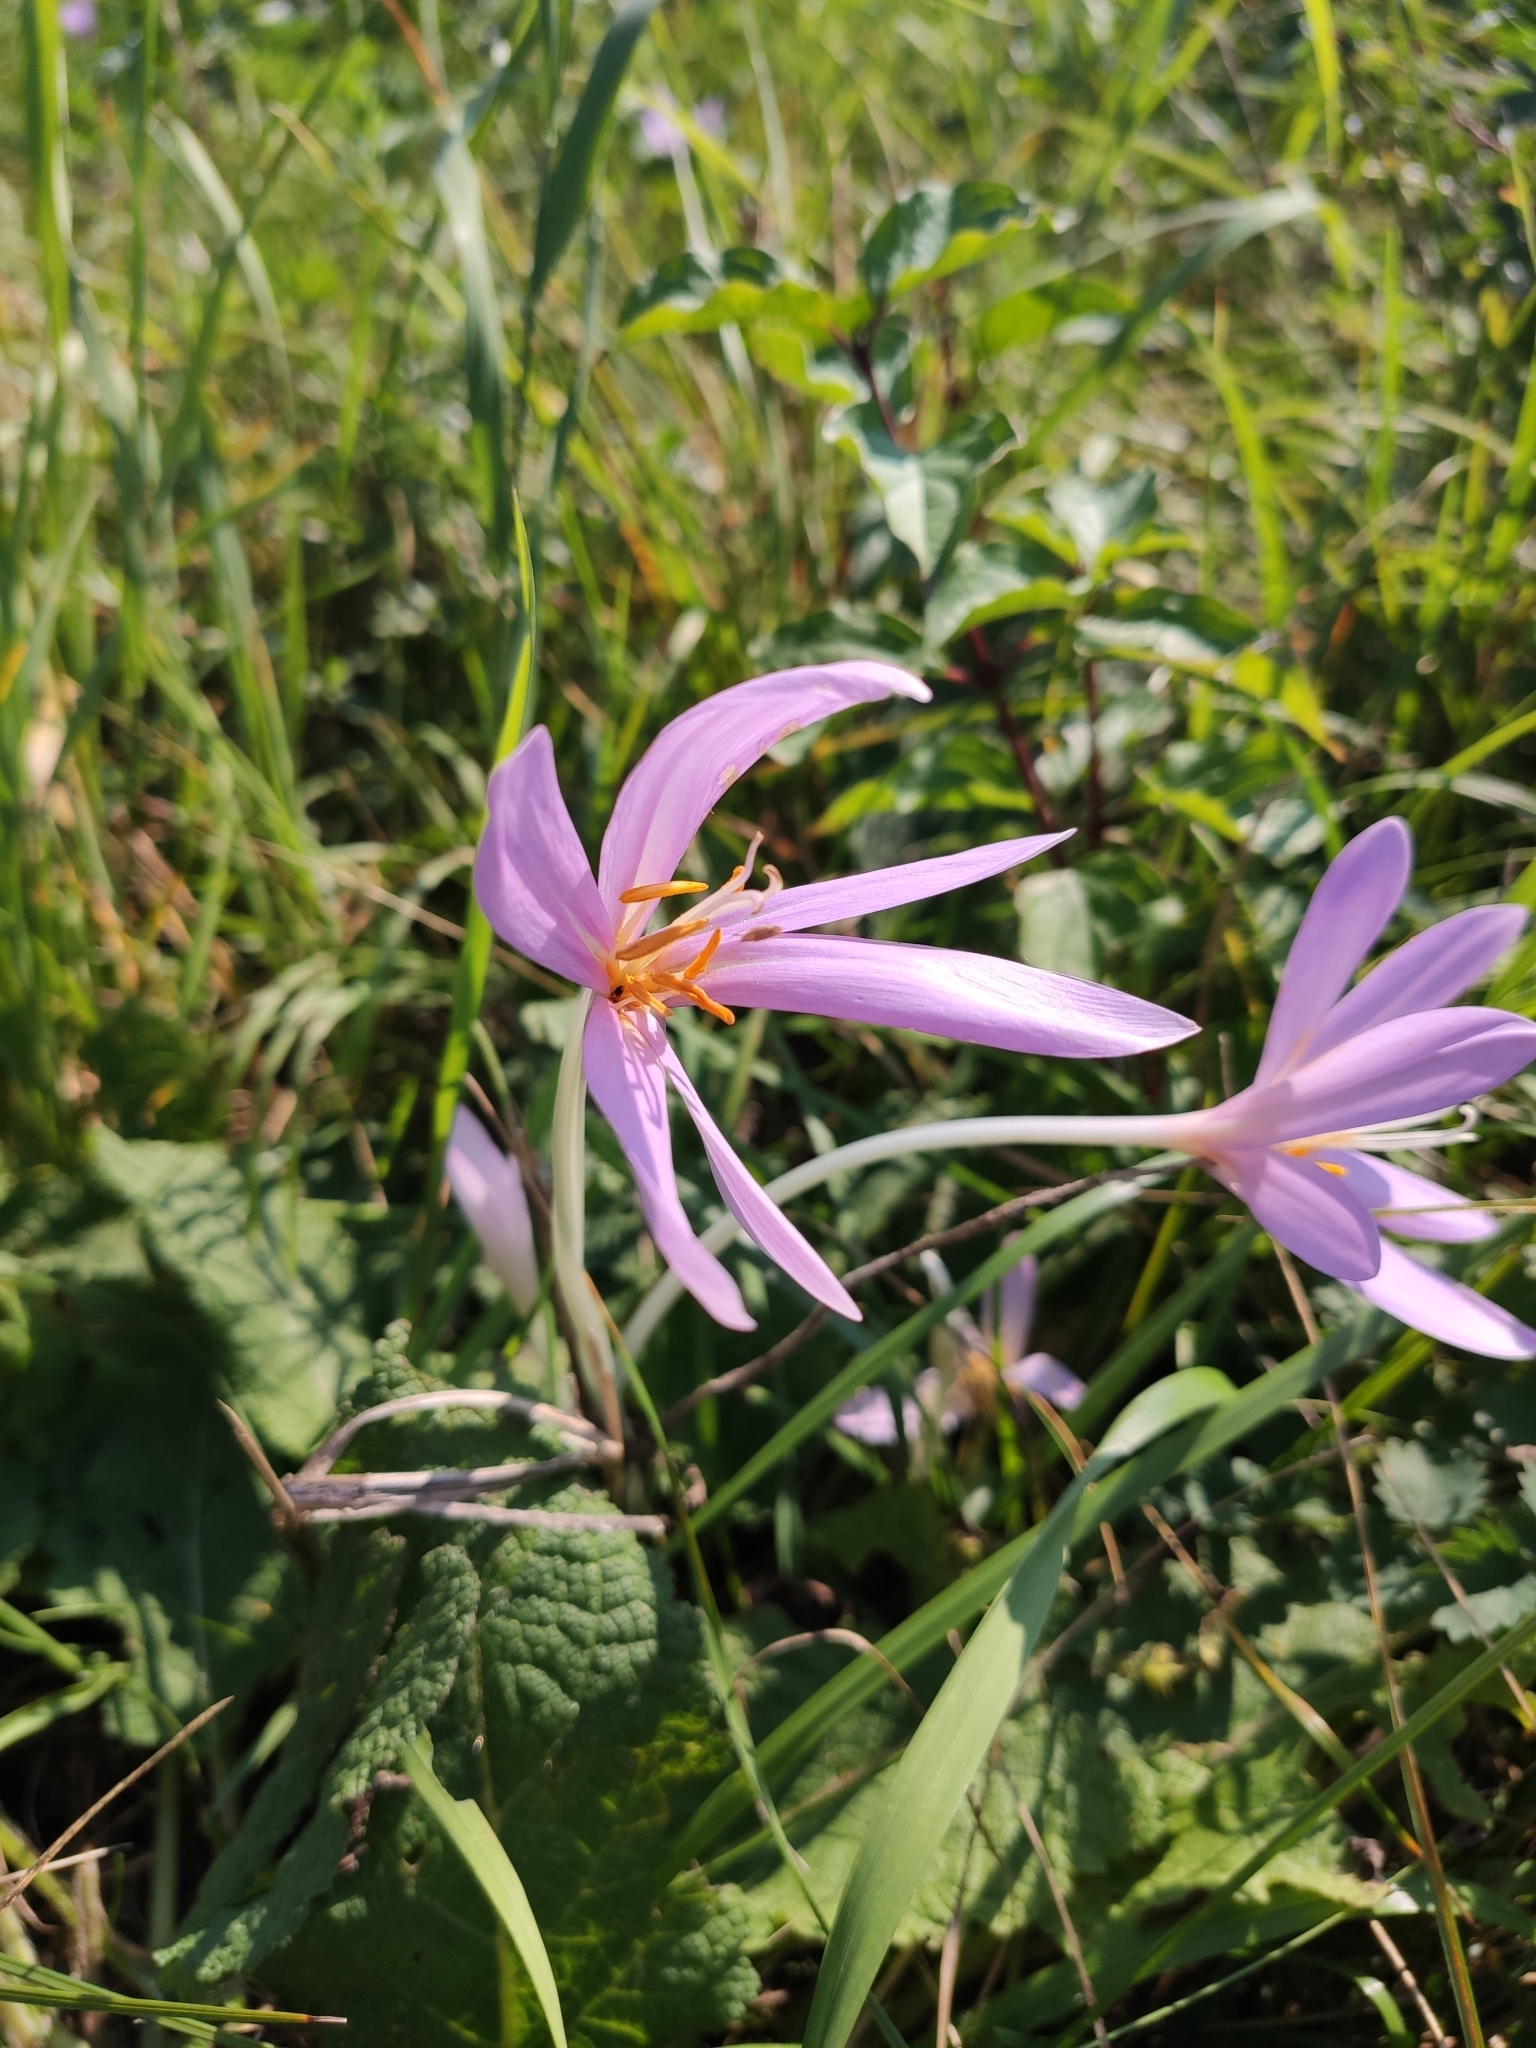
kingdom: Plantae
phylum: Tracheophyta
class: Liliopsida
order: Liliales
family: Colchicaceae
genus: Colchicum
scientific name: Colchicum autumnale
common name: Autumn crocus
